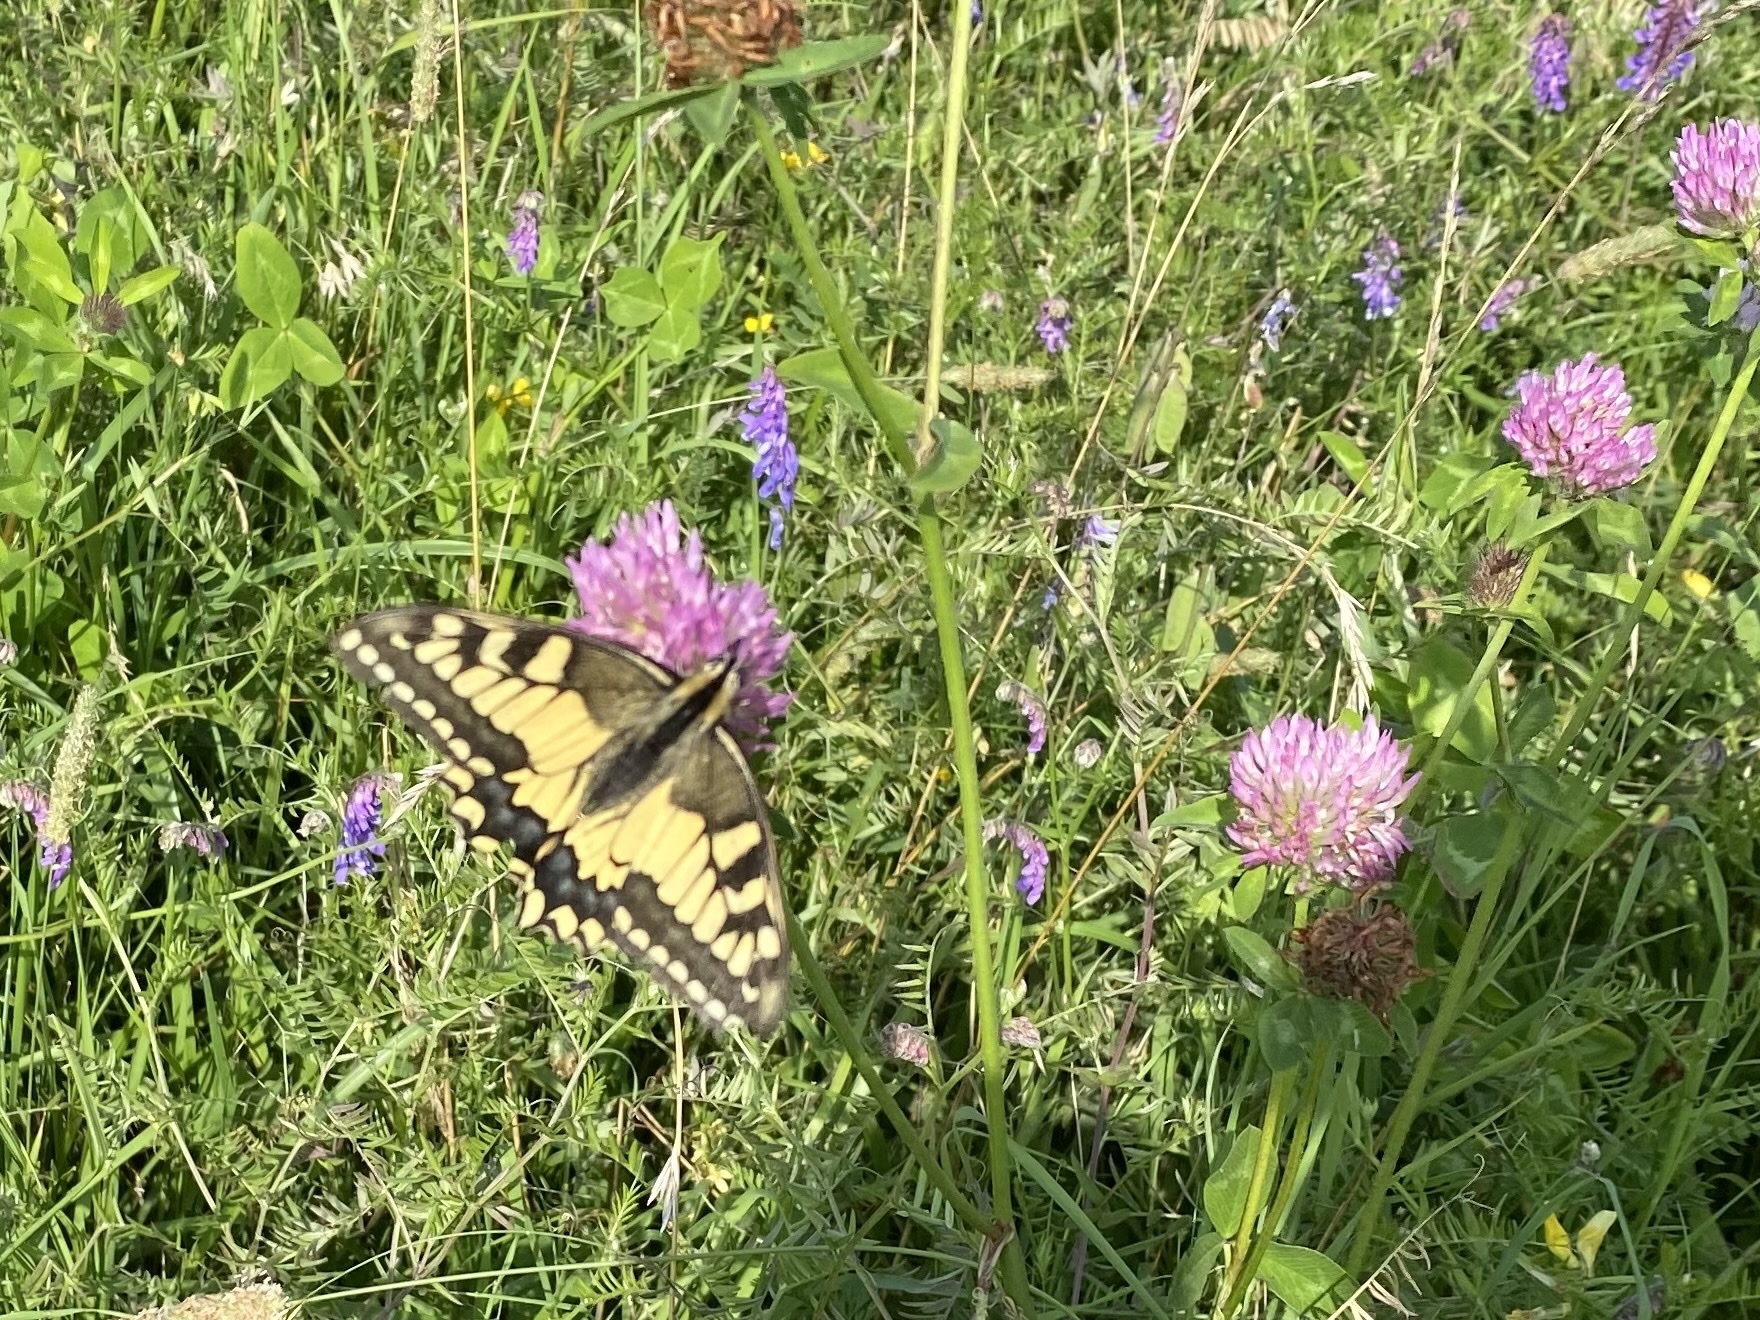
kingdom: Animalia
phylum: Arthropoda
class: Insecta
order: Lepidoptera
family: Papilionidae
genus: Papilio
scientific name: Papilio machaon
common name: Swallowtail
